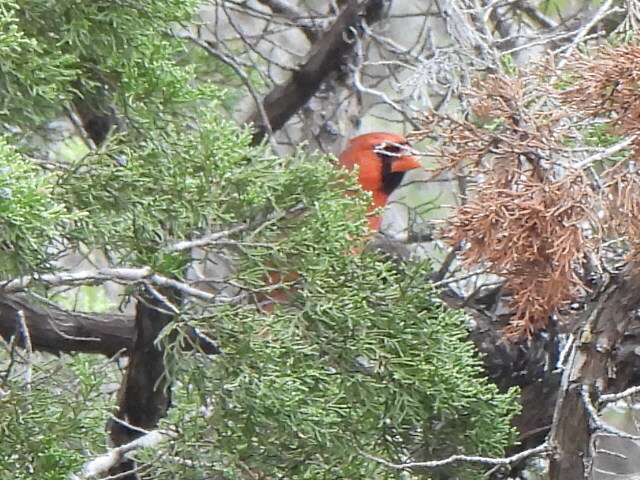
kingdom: Animalia
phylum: Chordata
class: Aves
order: Passeriformes
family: Cardinalidae
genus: Cardinalis
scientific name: Cardinalis cardinalis
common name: Northern cardinal
